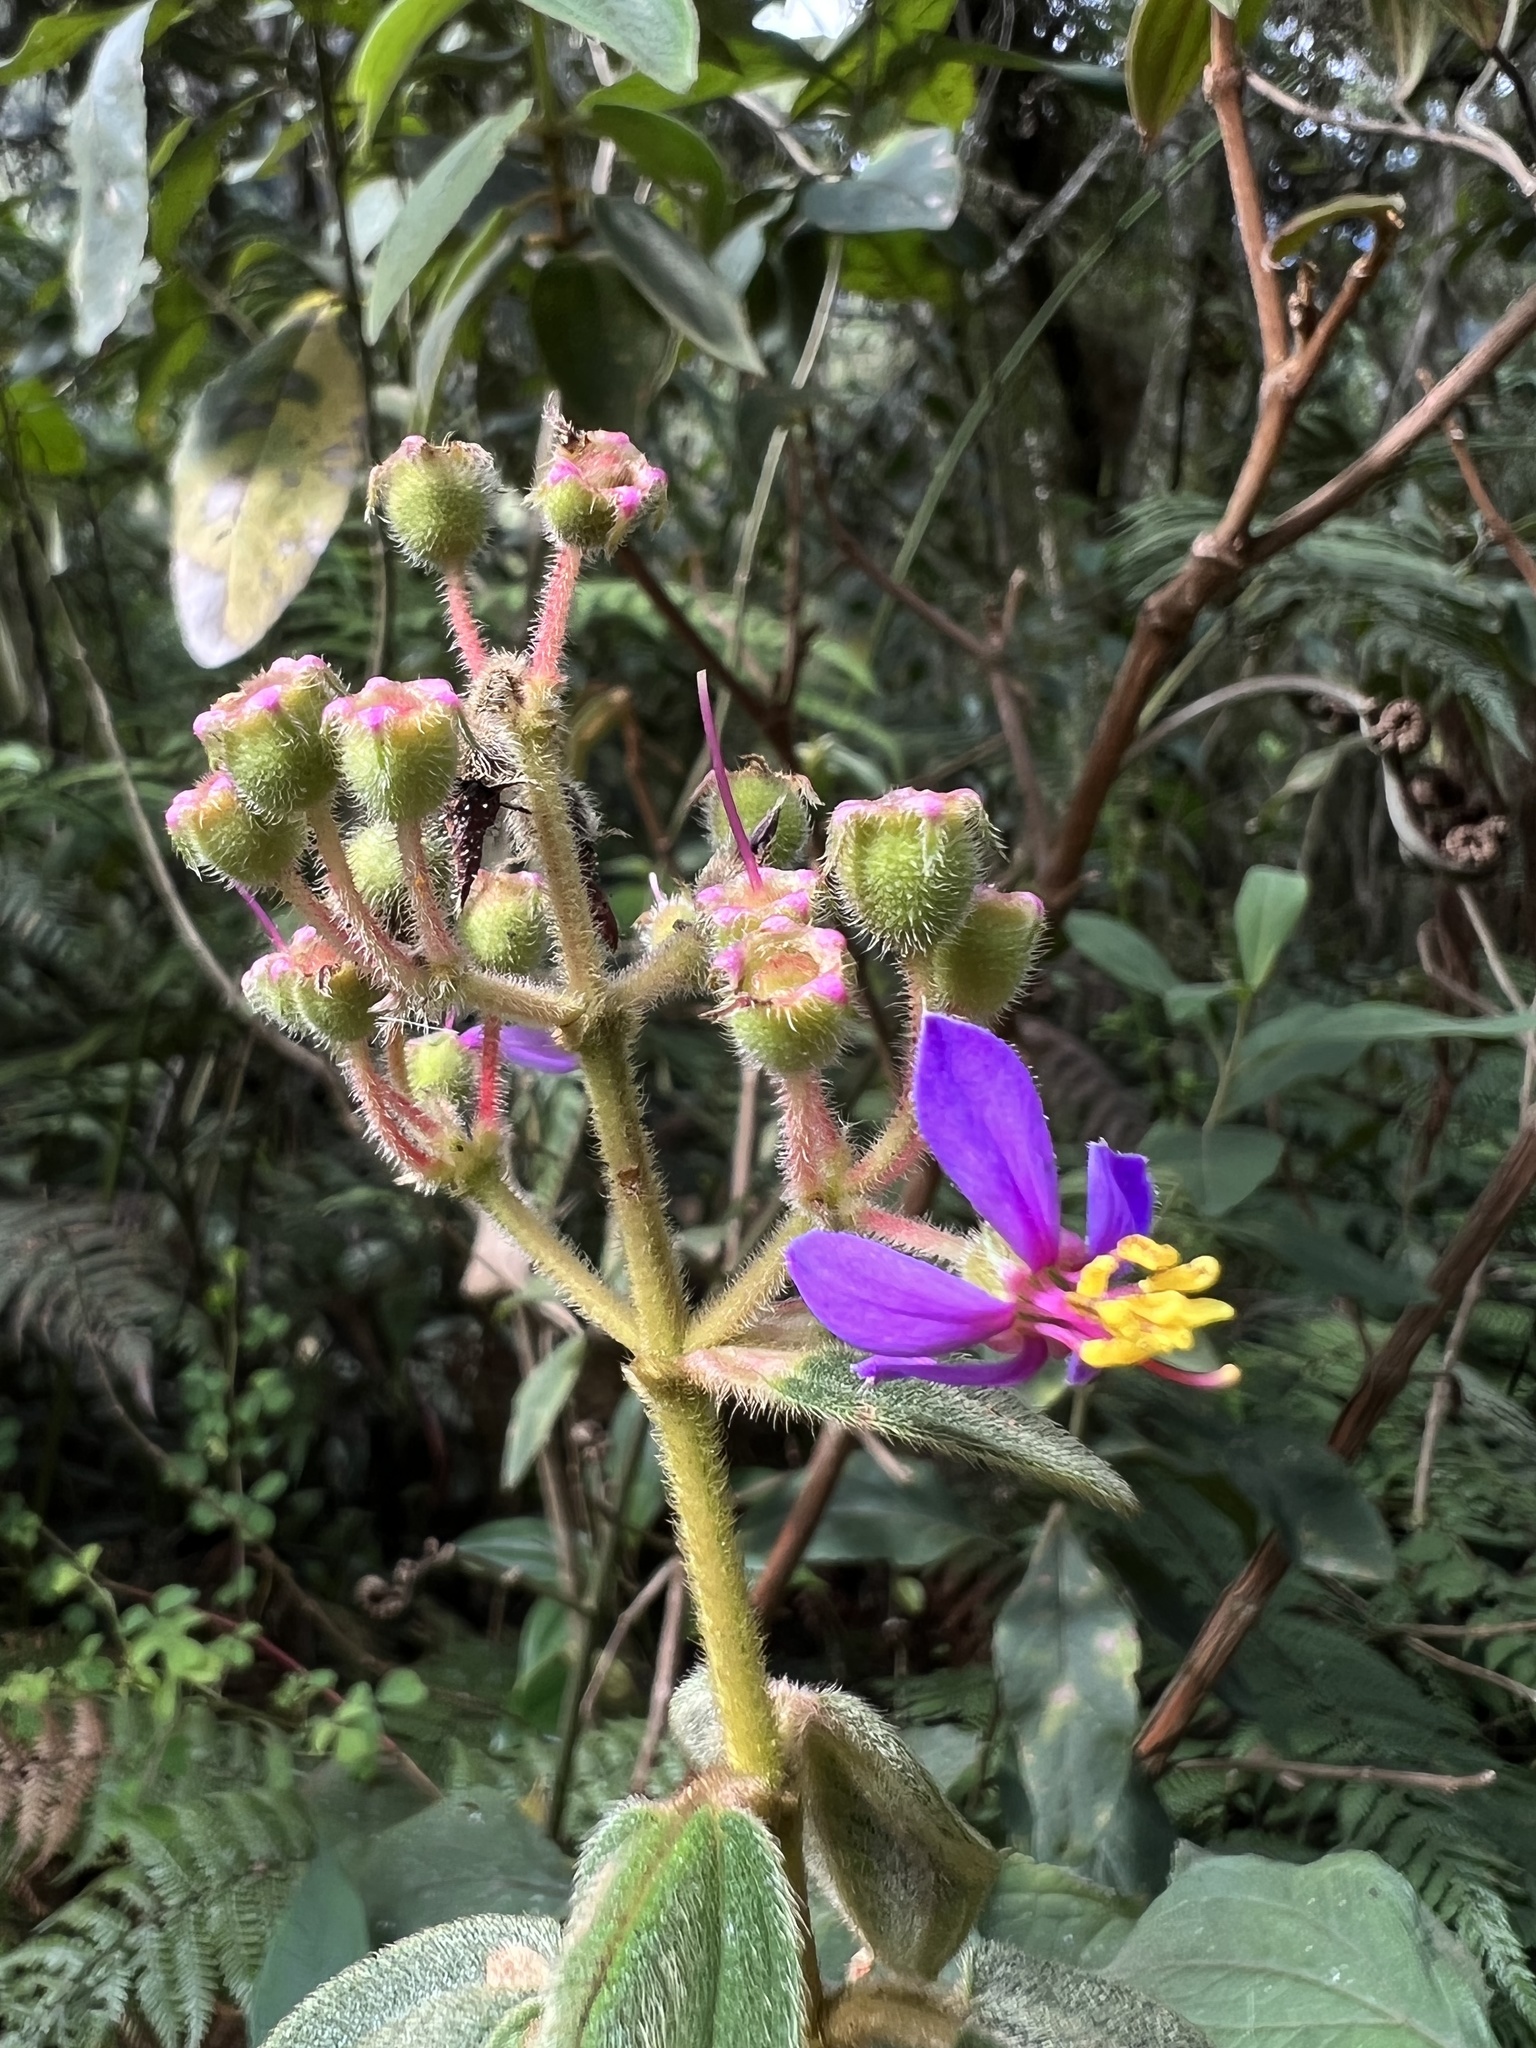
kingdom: Plantae
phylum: Tracheophyta
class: Magnoliopsida
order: Myrtales
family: Melastomataceae
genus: Chaetogastra
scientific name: Chaetogastra mollis
